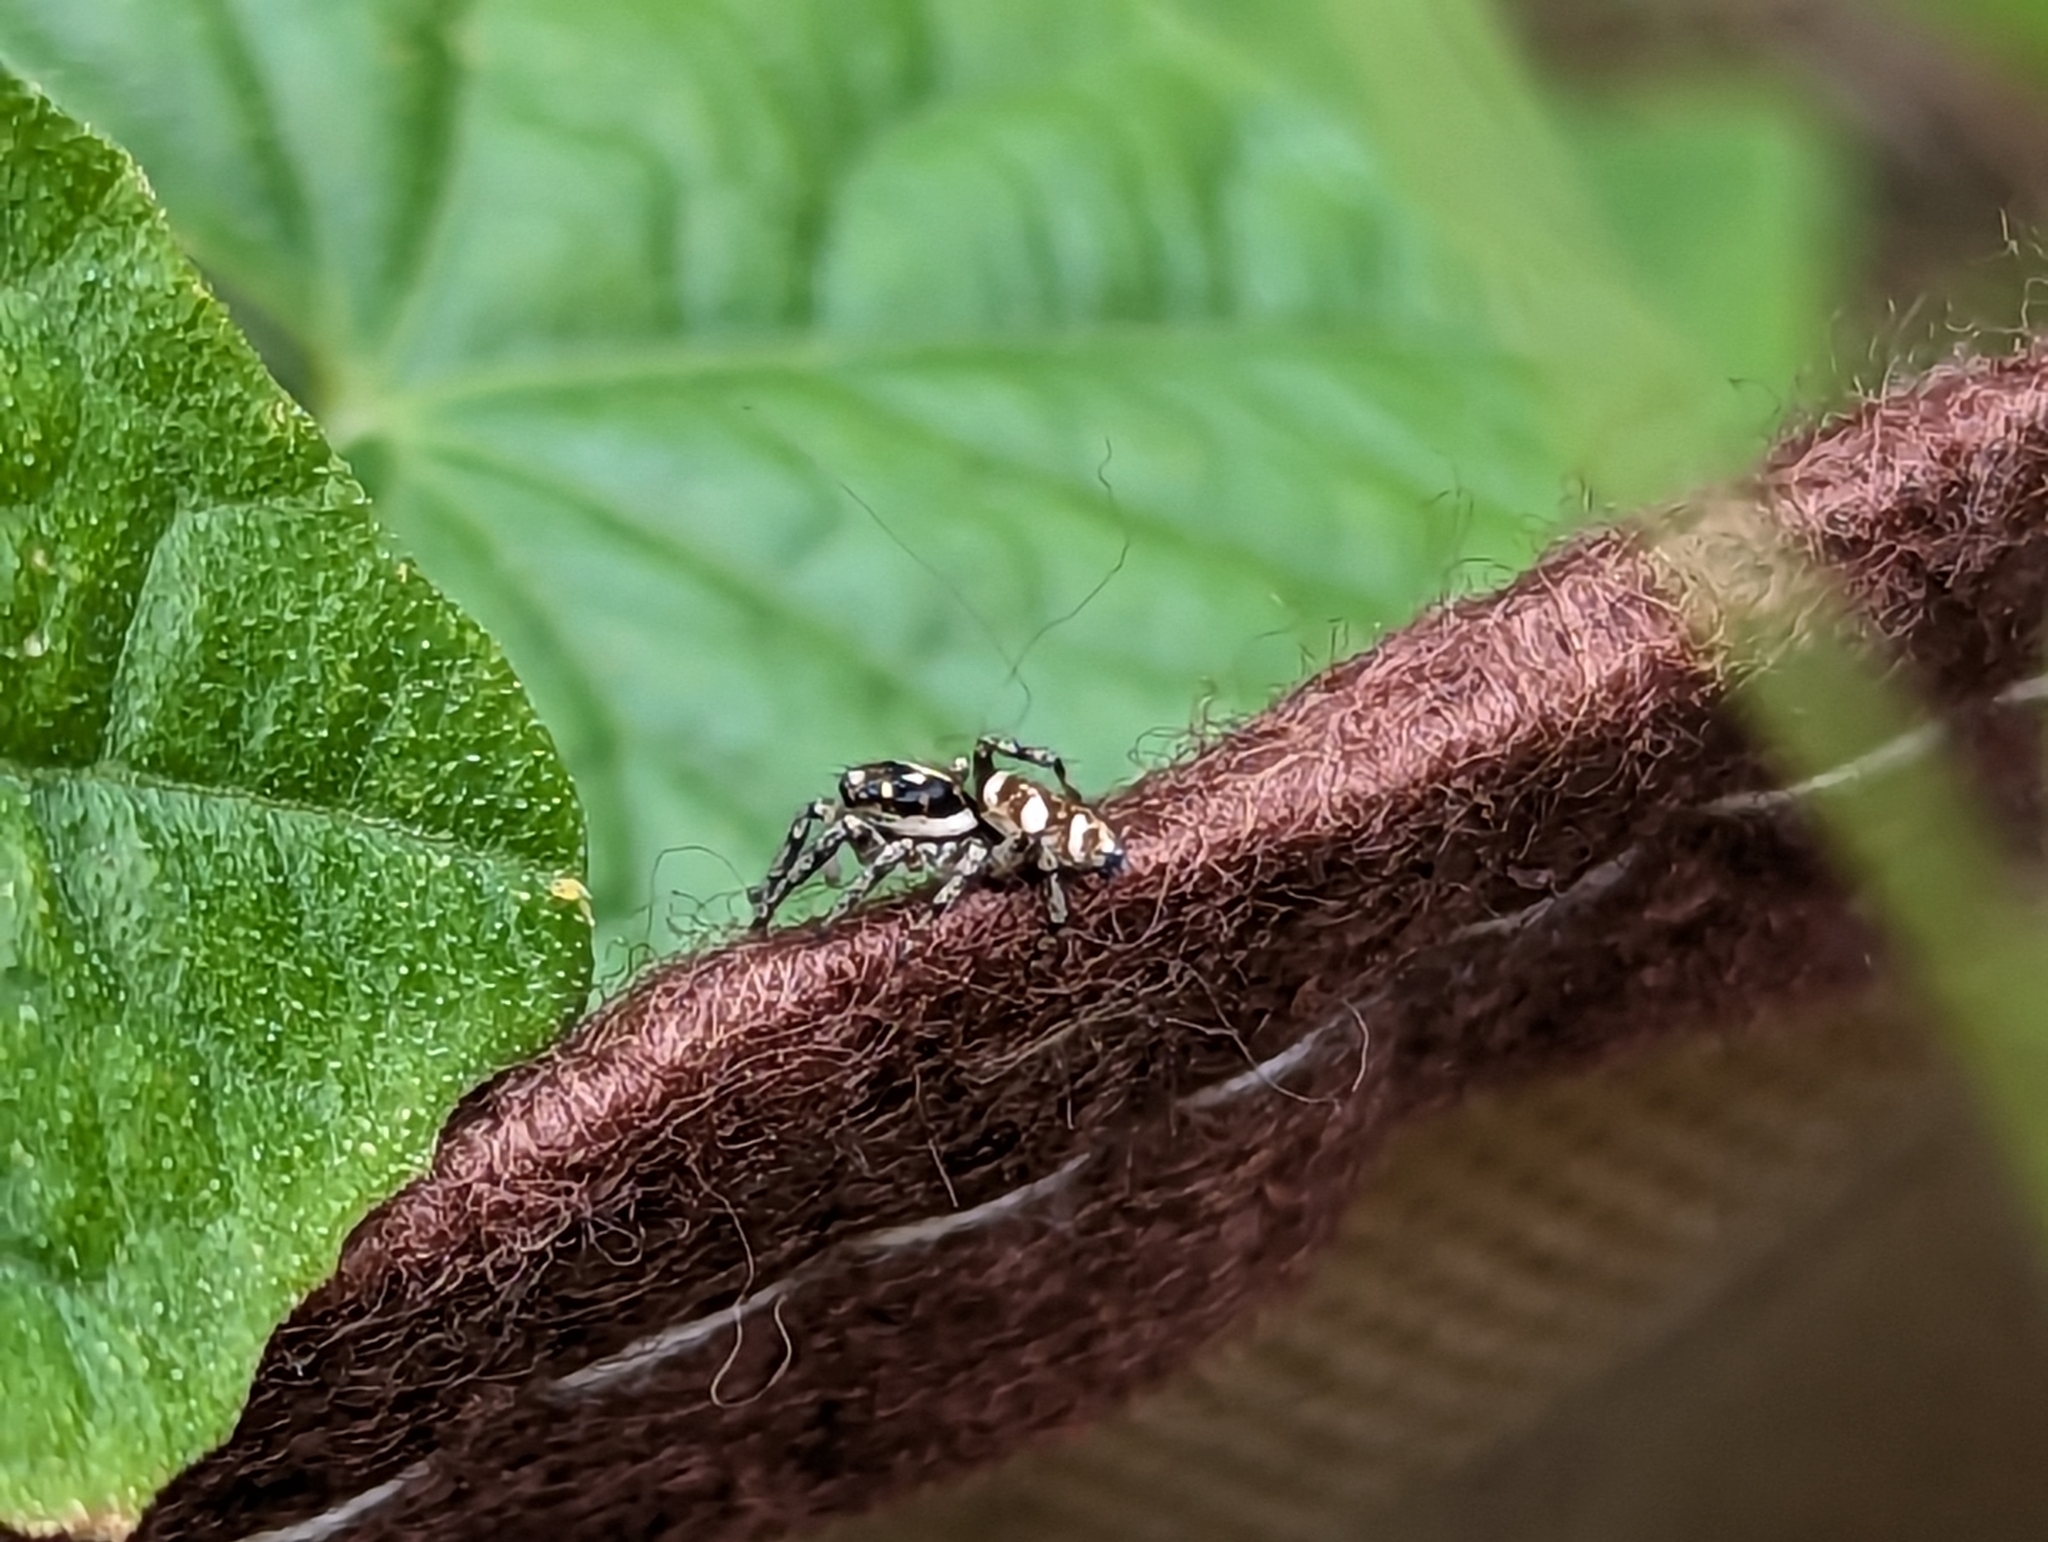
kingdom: Animalia
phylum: Arthropoda
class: Arachnida
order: Araneae
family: Salticidae
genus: Salticus
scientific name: Salticus scenicus
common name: Zebra jumper
